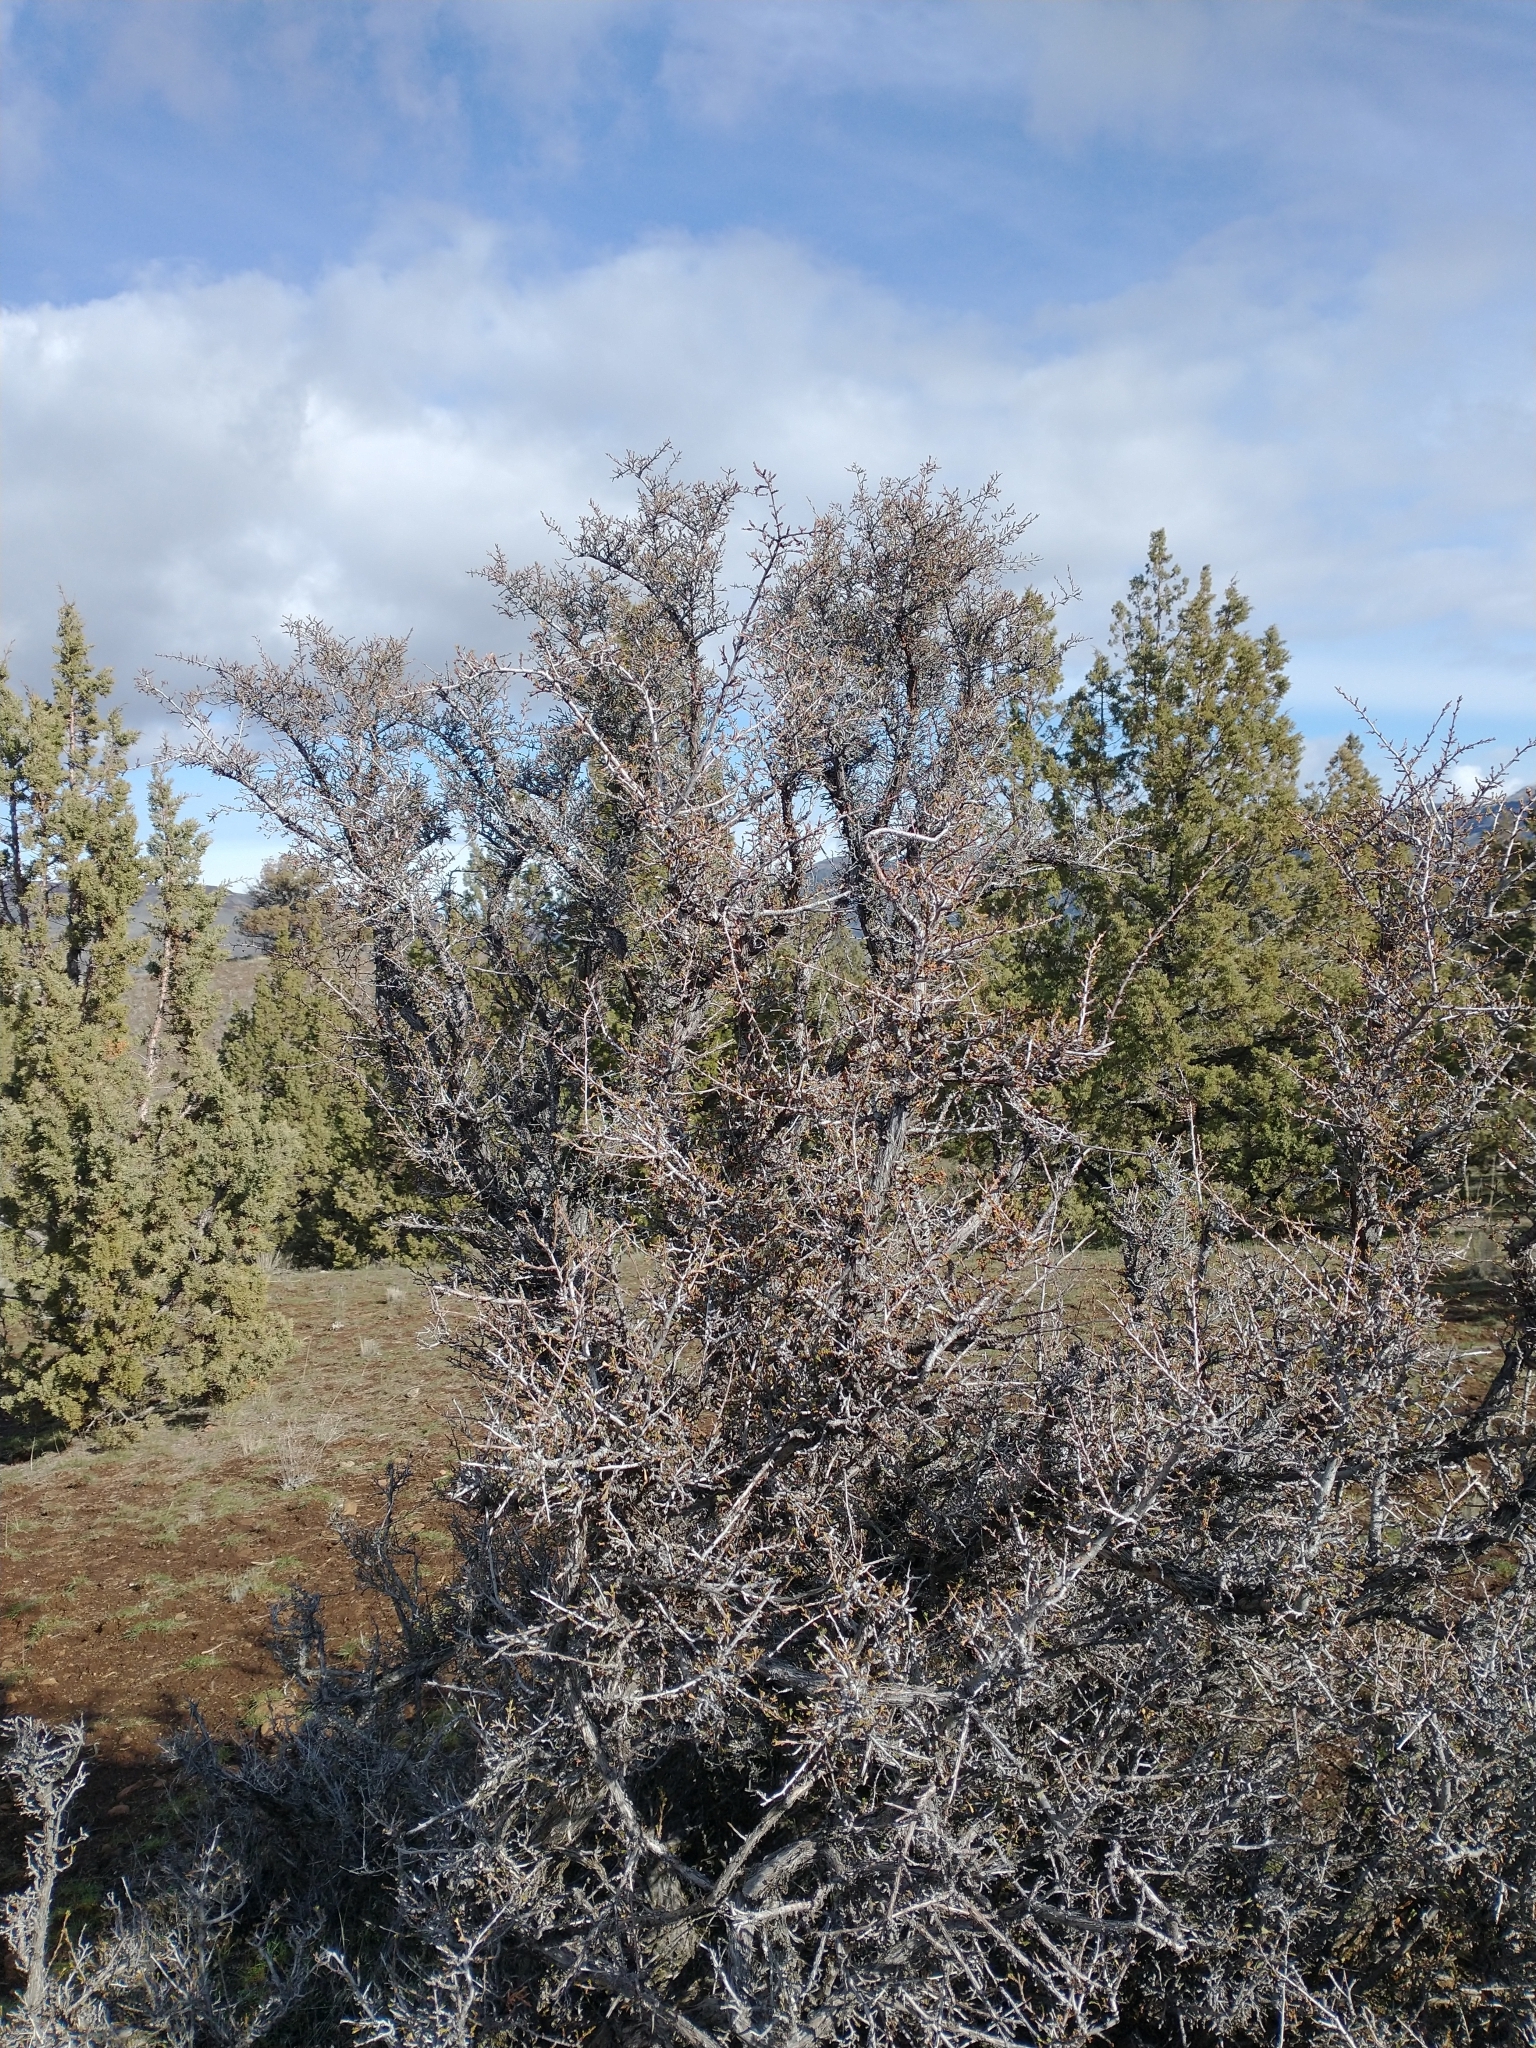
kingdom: Plantae
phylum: Tracheophyta
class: Magnoliopsida
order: Rosales
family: Rosaceae
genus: Purshia
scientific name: Purshia tridentata
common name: Antelope bitterbrush
